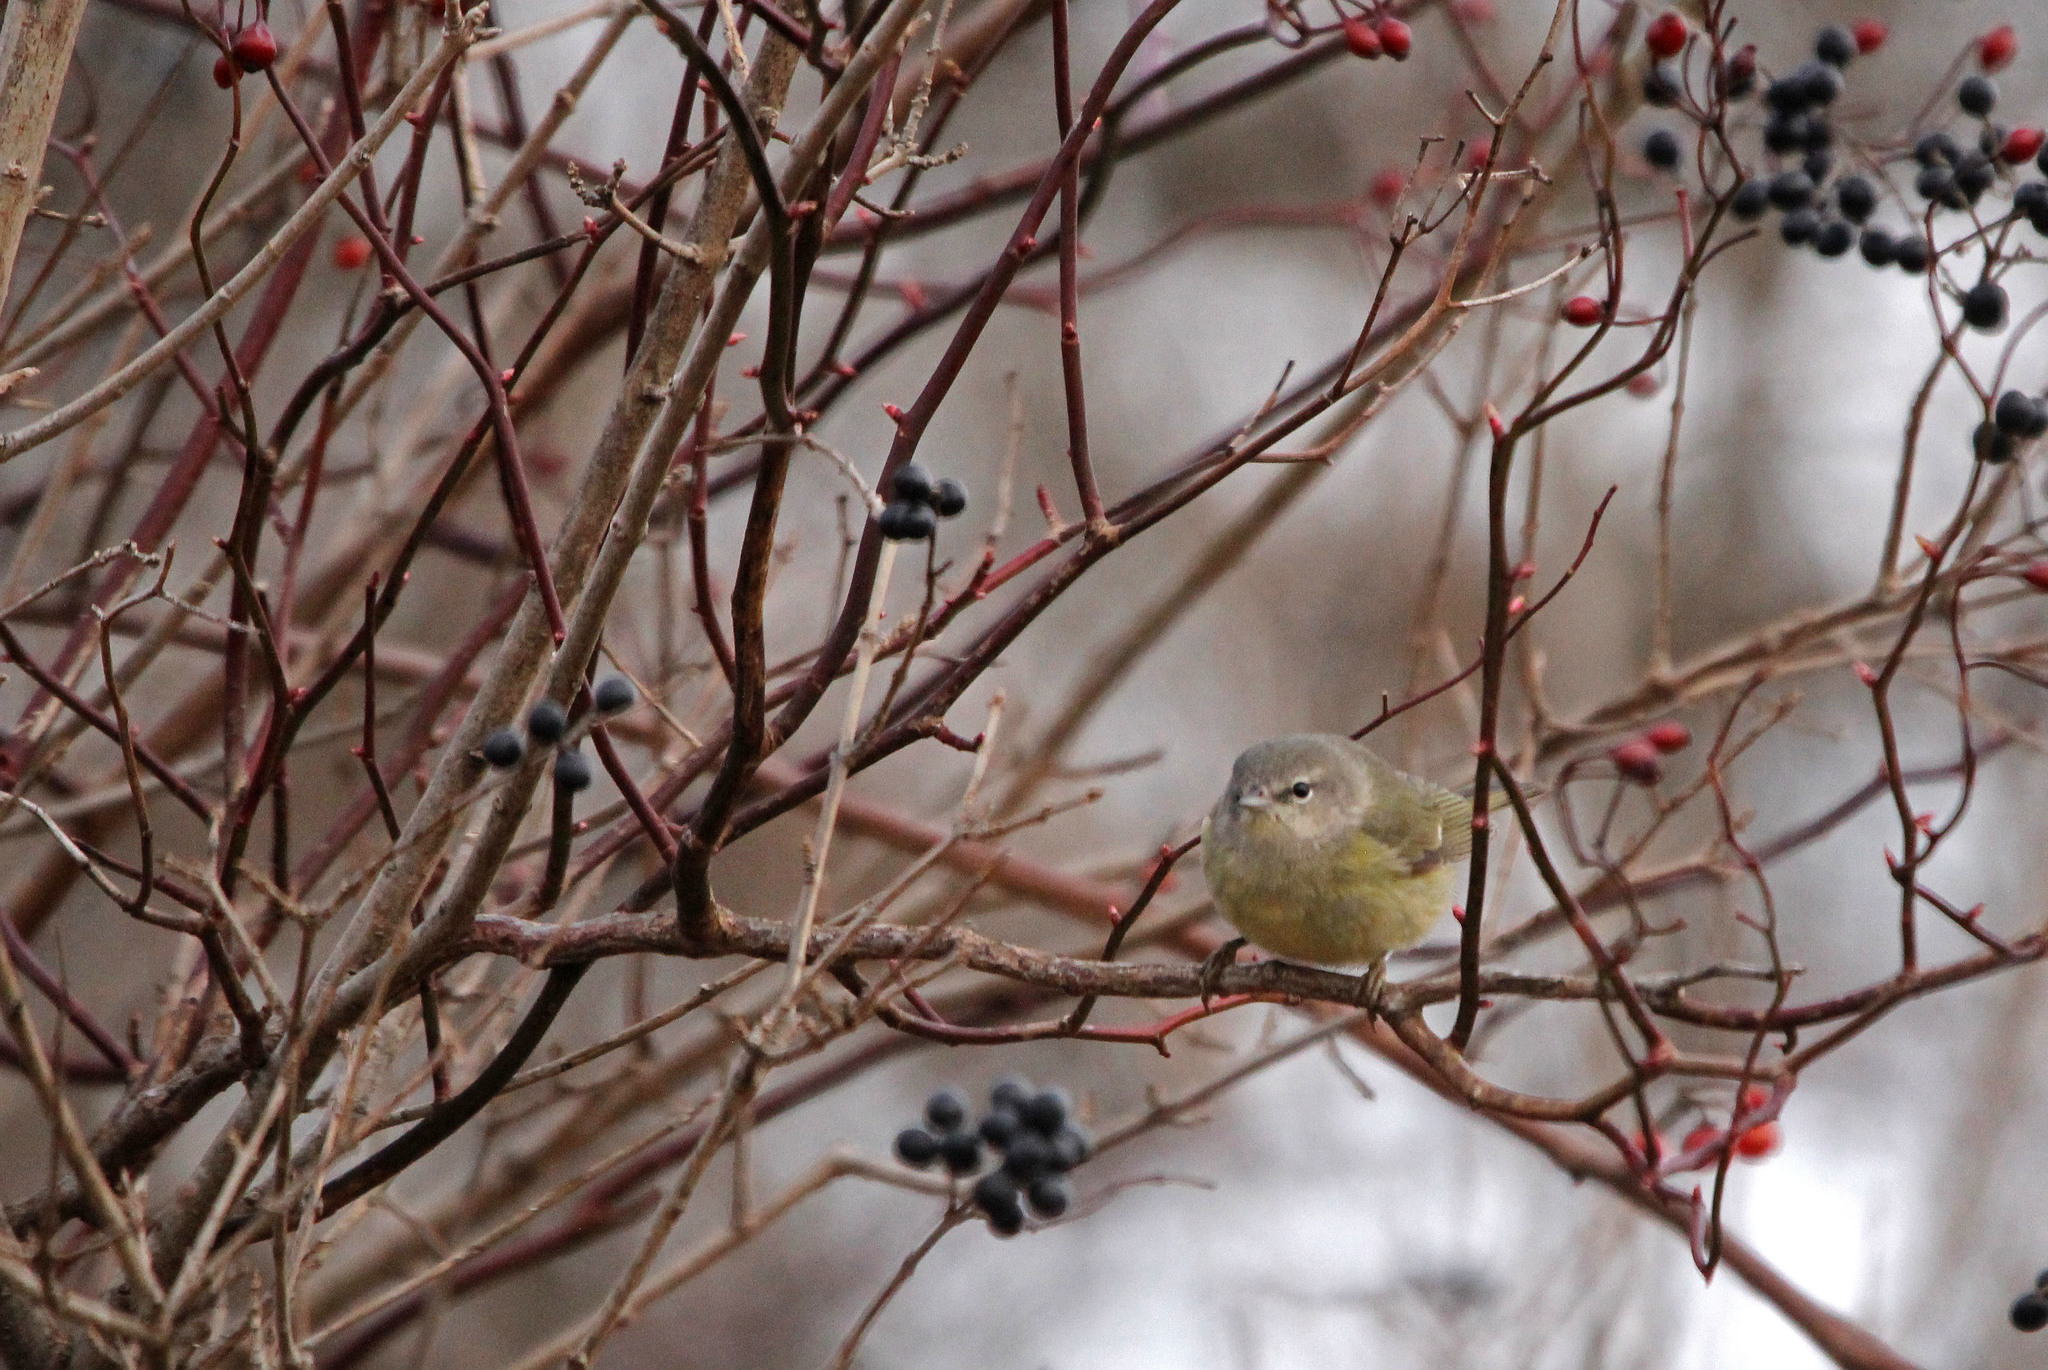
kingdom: Animalia
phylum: Chordata
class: Aves
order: Passeriformes
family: Parulidae
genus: Leiothlypis
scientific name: Leiothlypis celata
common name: Orange-crowned warbler
